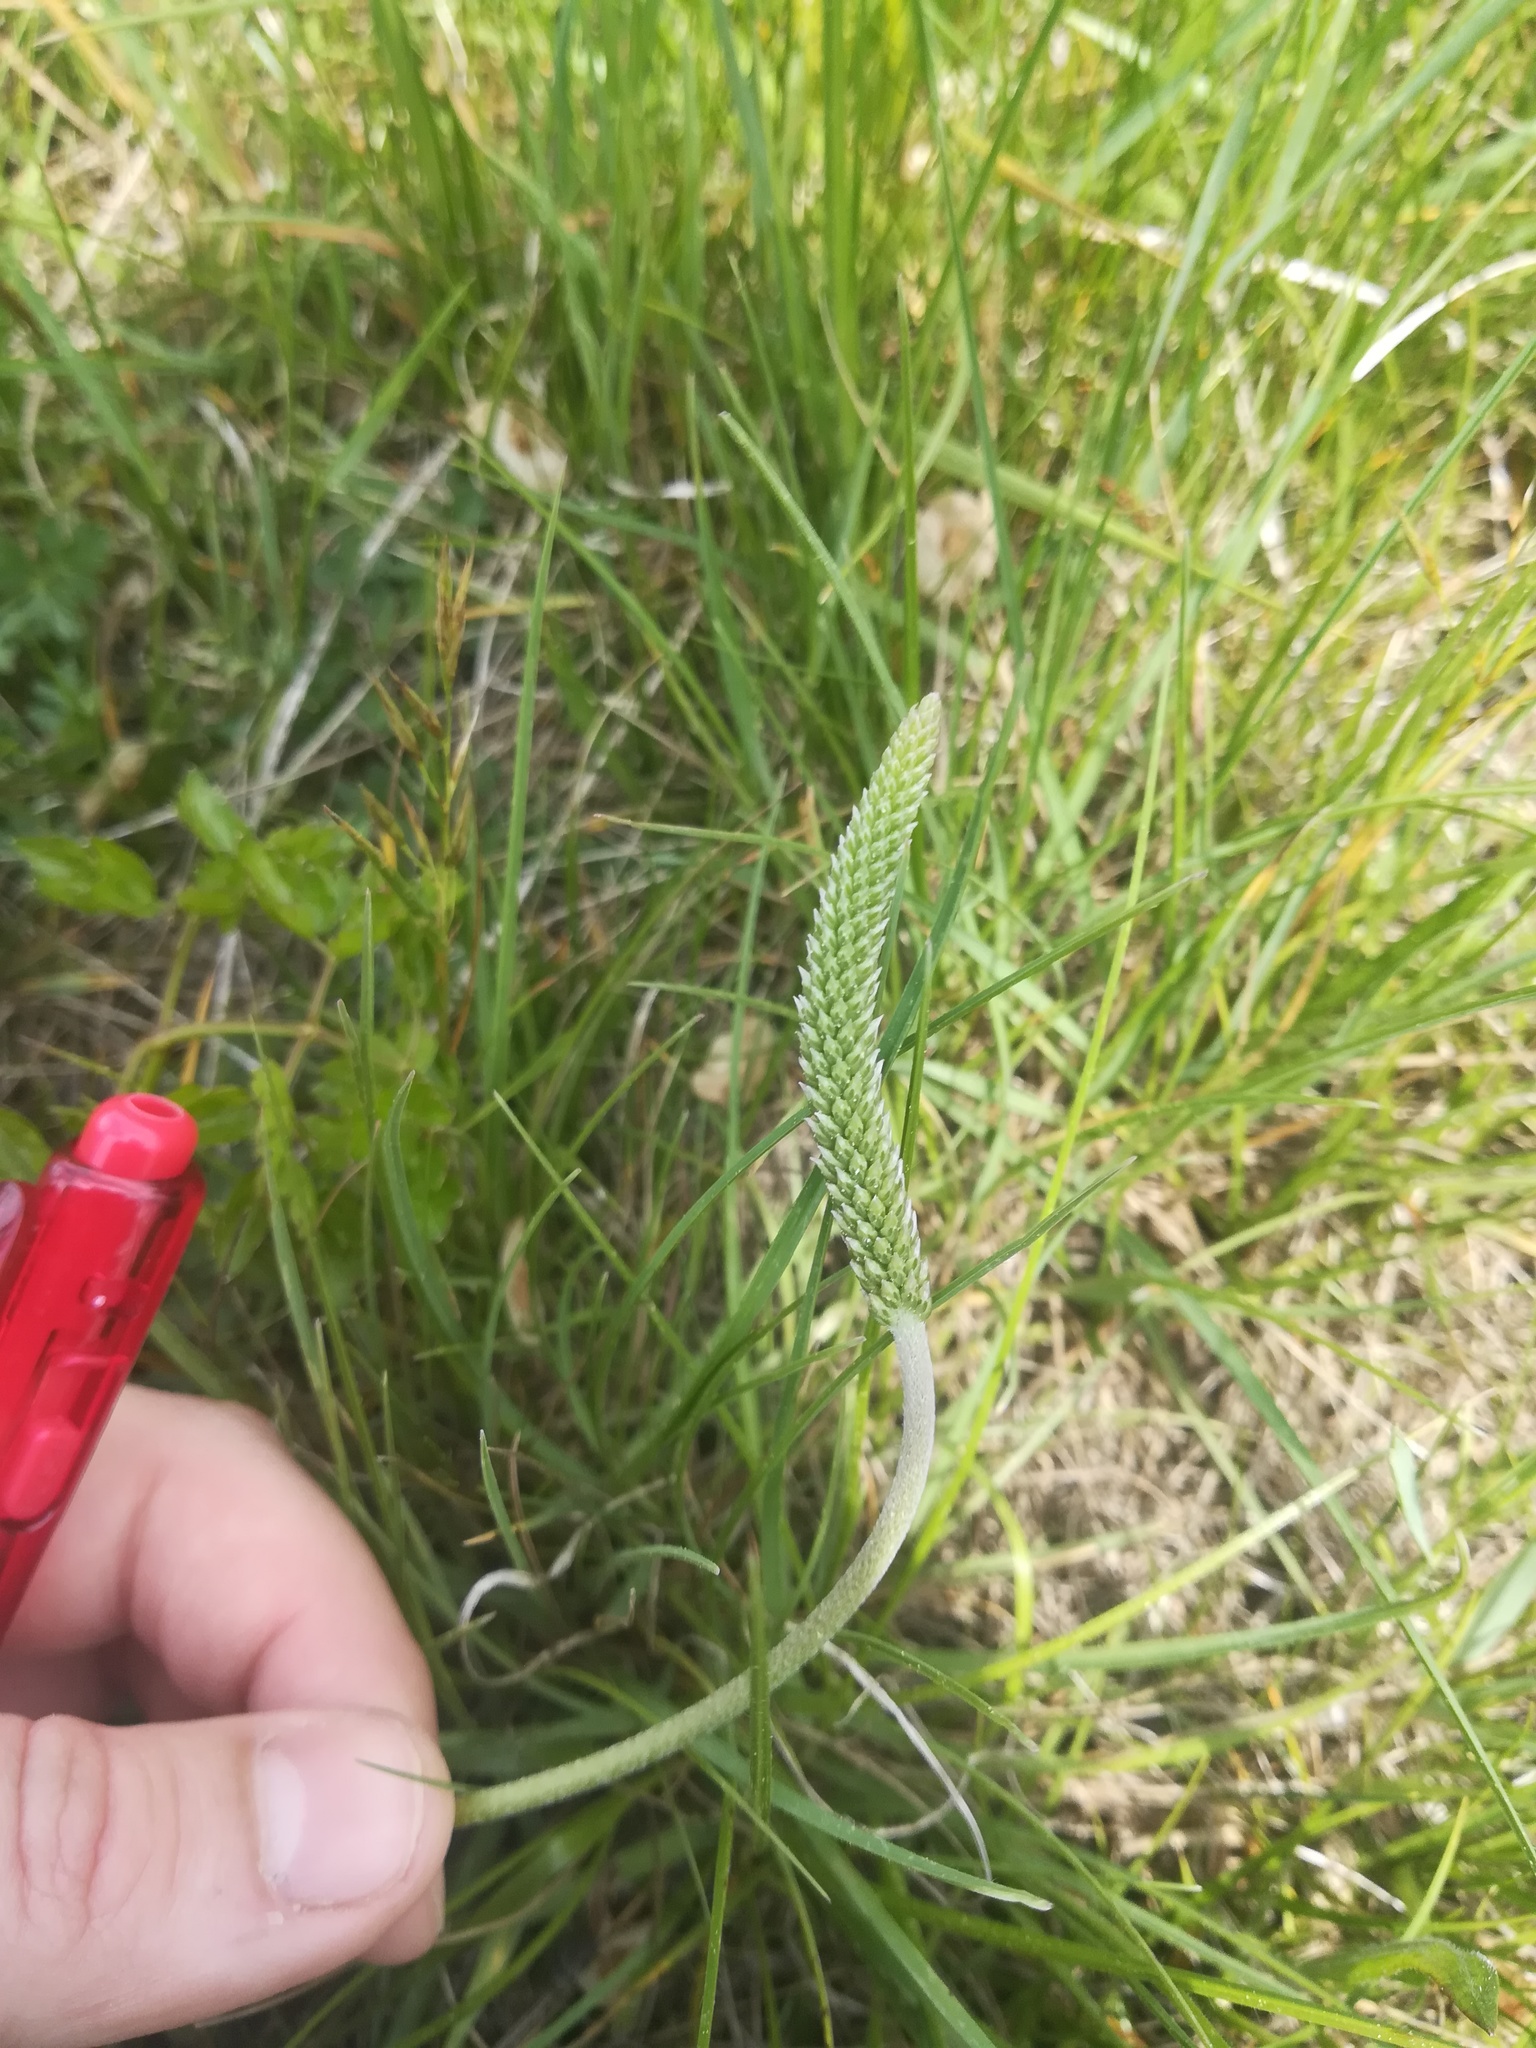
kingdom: Plantae
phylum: Tracheophyta
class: Magnoliopsida
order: Lamiales
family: Plantaginaceae
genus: Plantago
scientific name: Plantago media
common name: Hoary plantain
